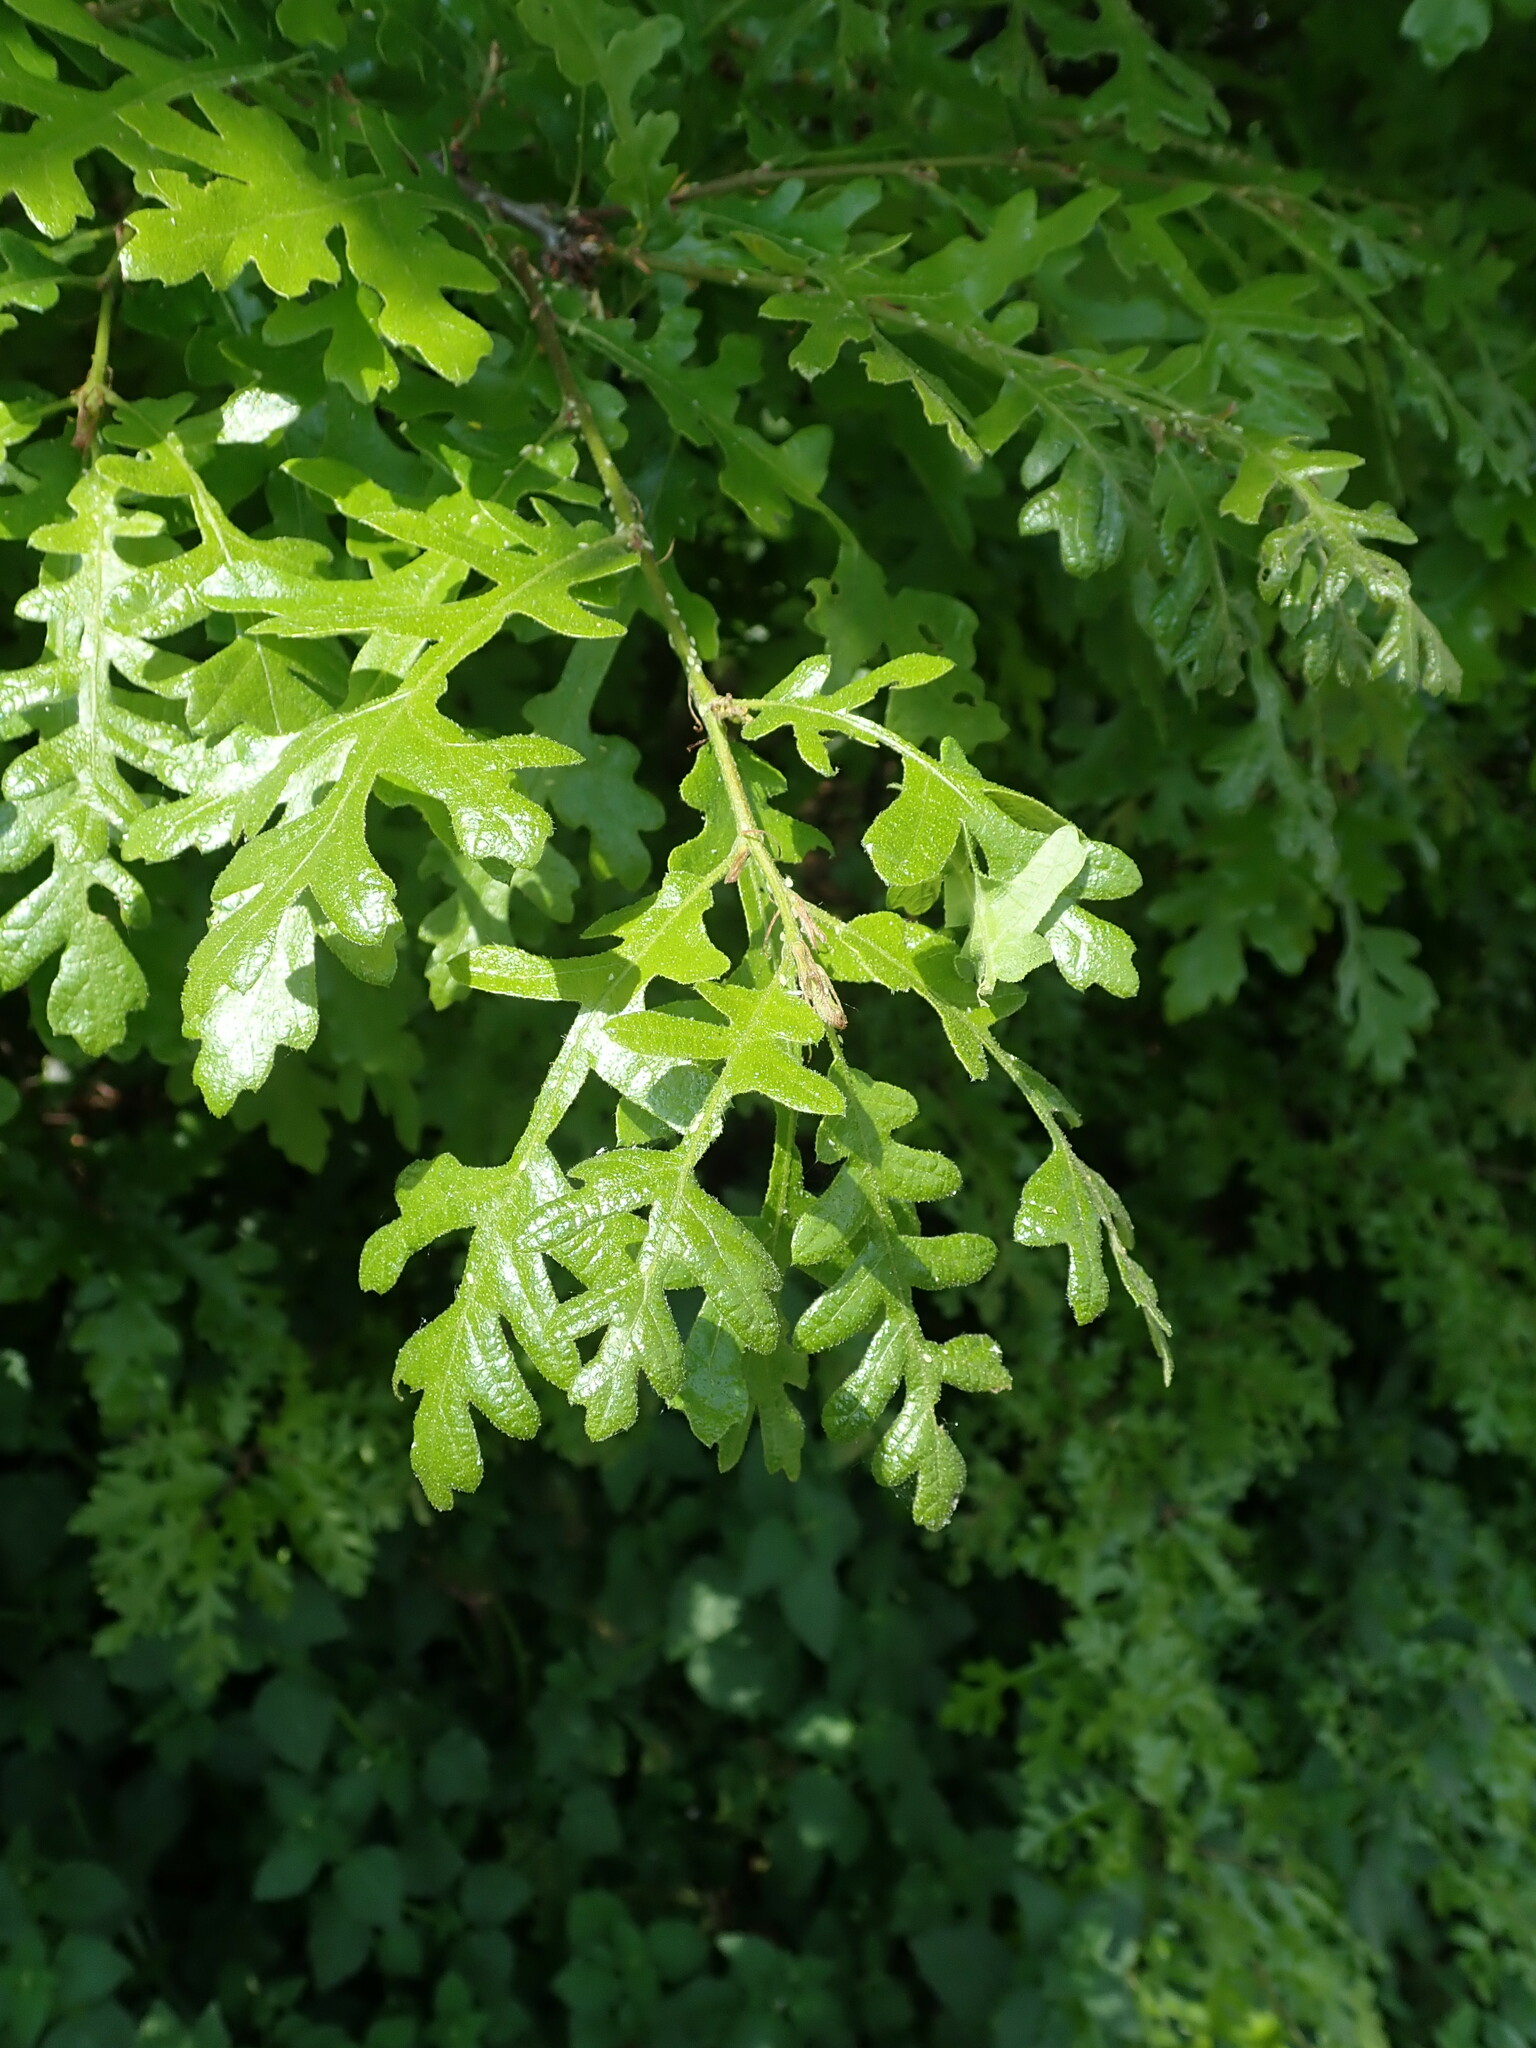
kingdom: Plantae
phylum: Tracheophyta
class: Magnoliopsida
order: Fagales
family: Fagaceae
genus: Quercus
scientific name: Quercus cerris
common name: Turkey oak
